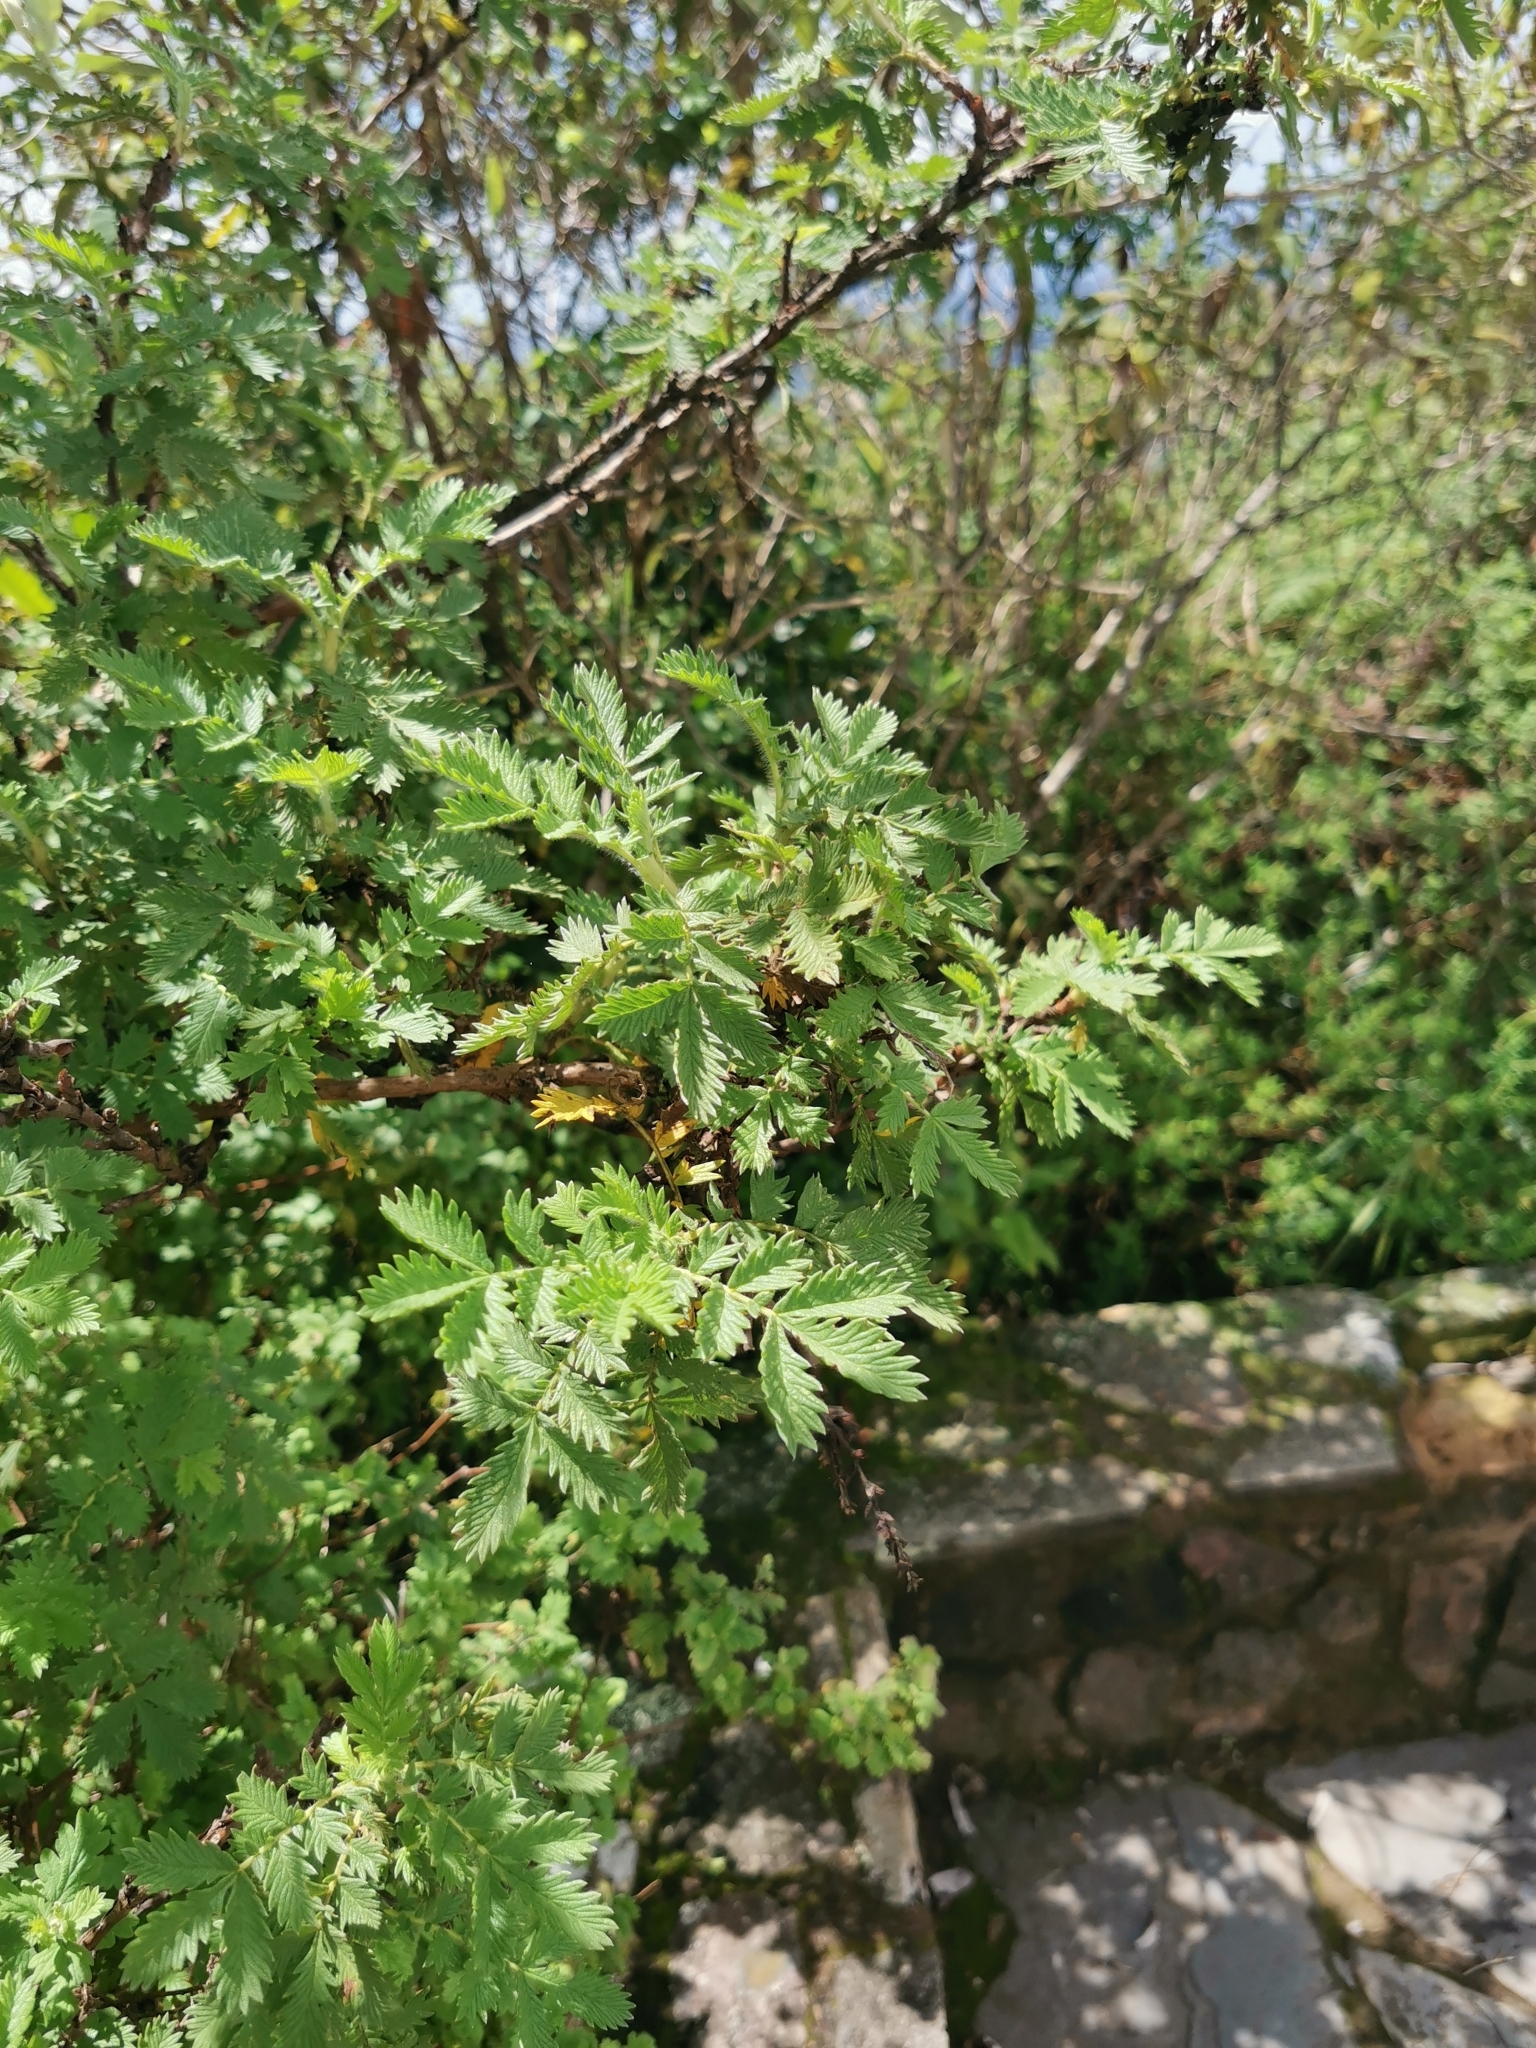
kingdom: Plantae
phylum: Tracheophyta
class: Magnoliopsida
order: Rosales
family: Rosaceae
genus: Leucosidea
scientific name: Leucosidea sericea
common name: Oldwood
